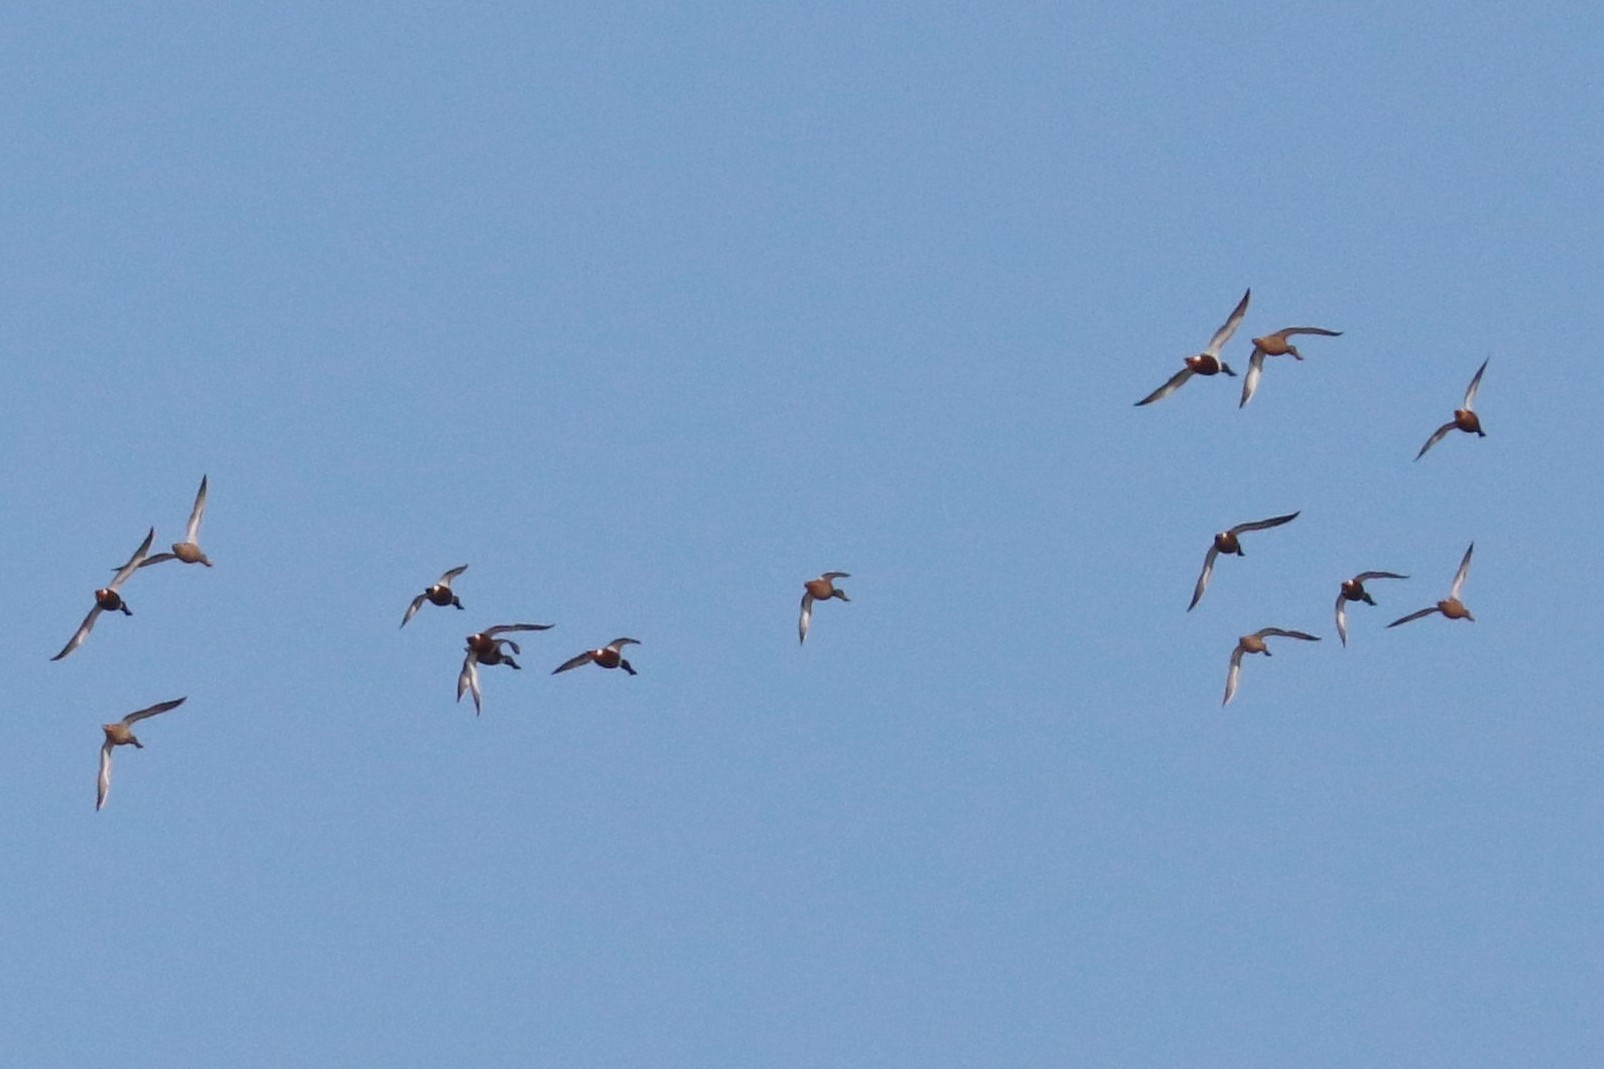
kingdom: Animalia
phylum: Chordata
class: Aves
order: Anseriformes
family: Anatidae
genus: Spatula
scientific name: Spatula clypeata
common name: Northern shoveler
